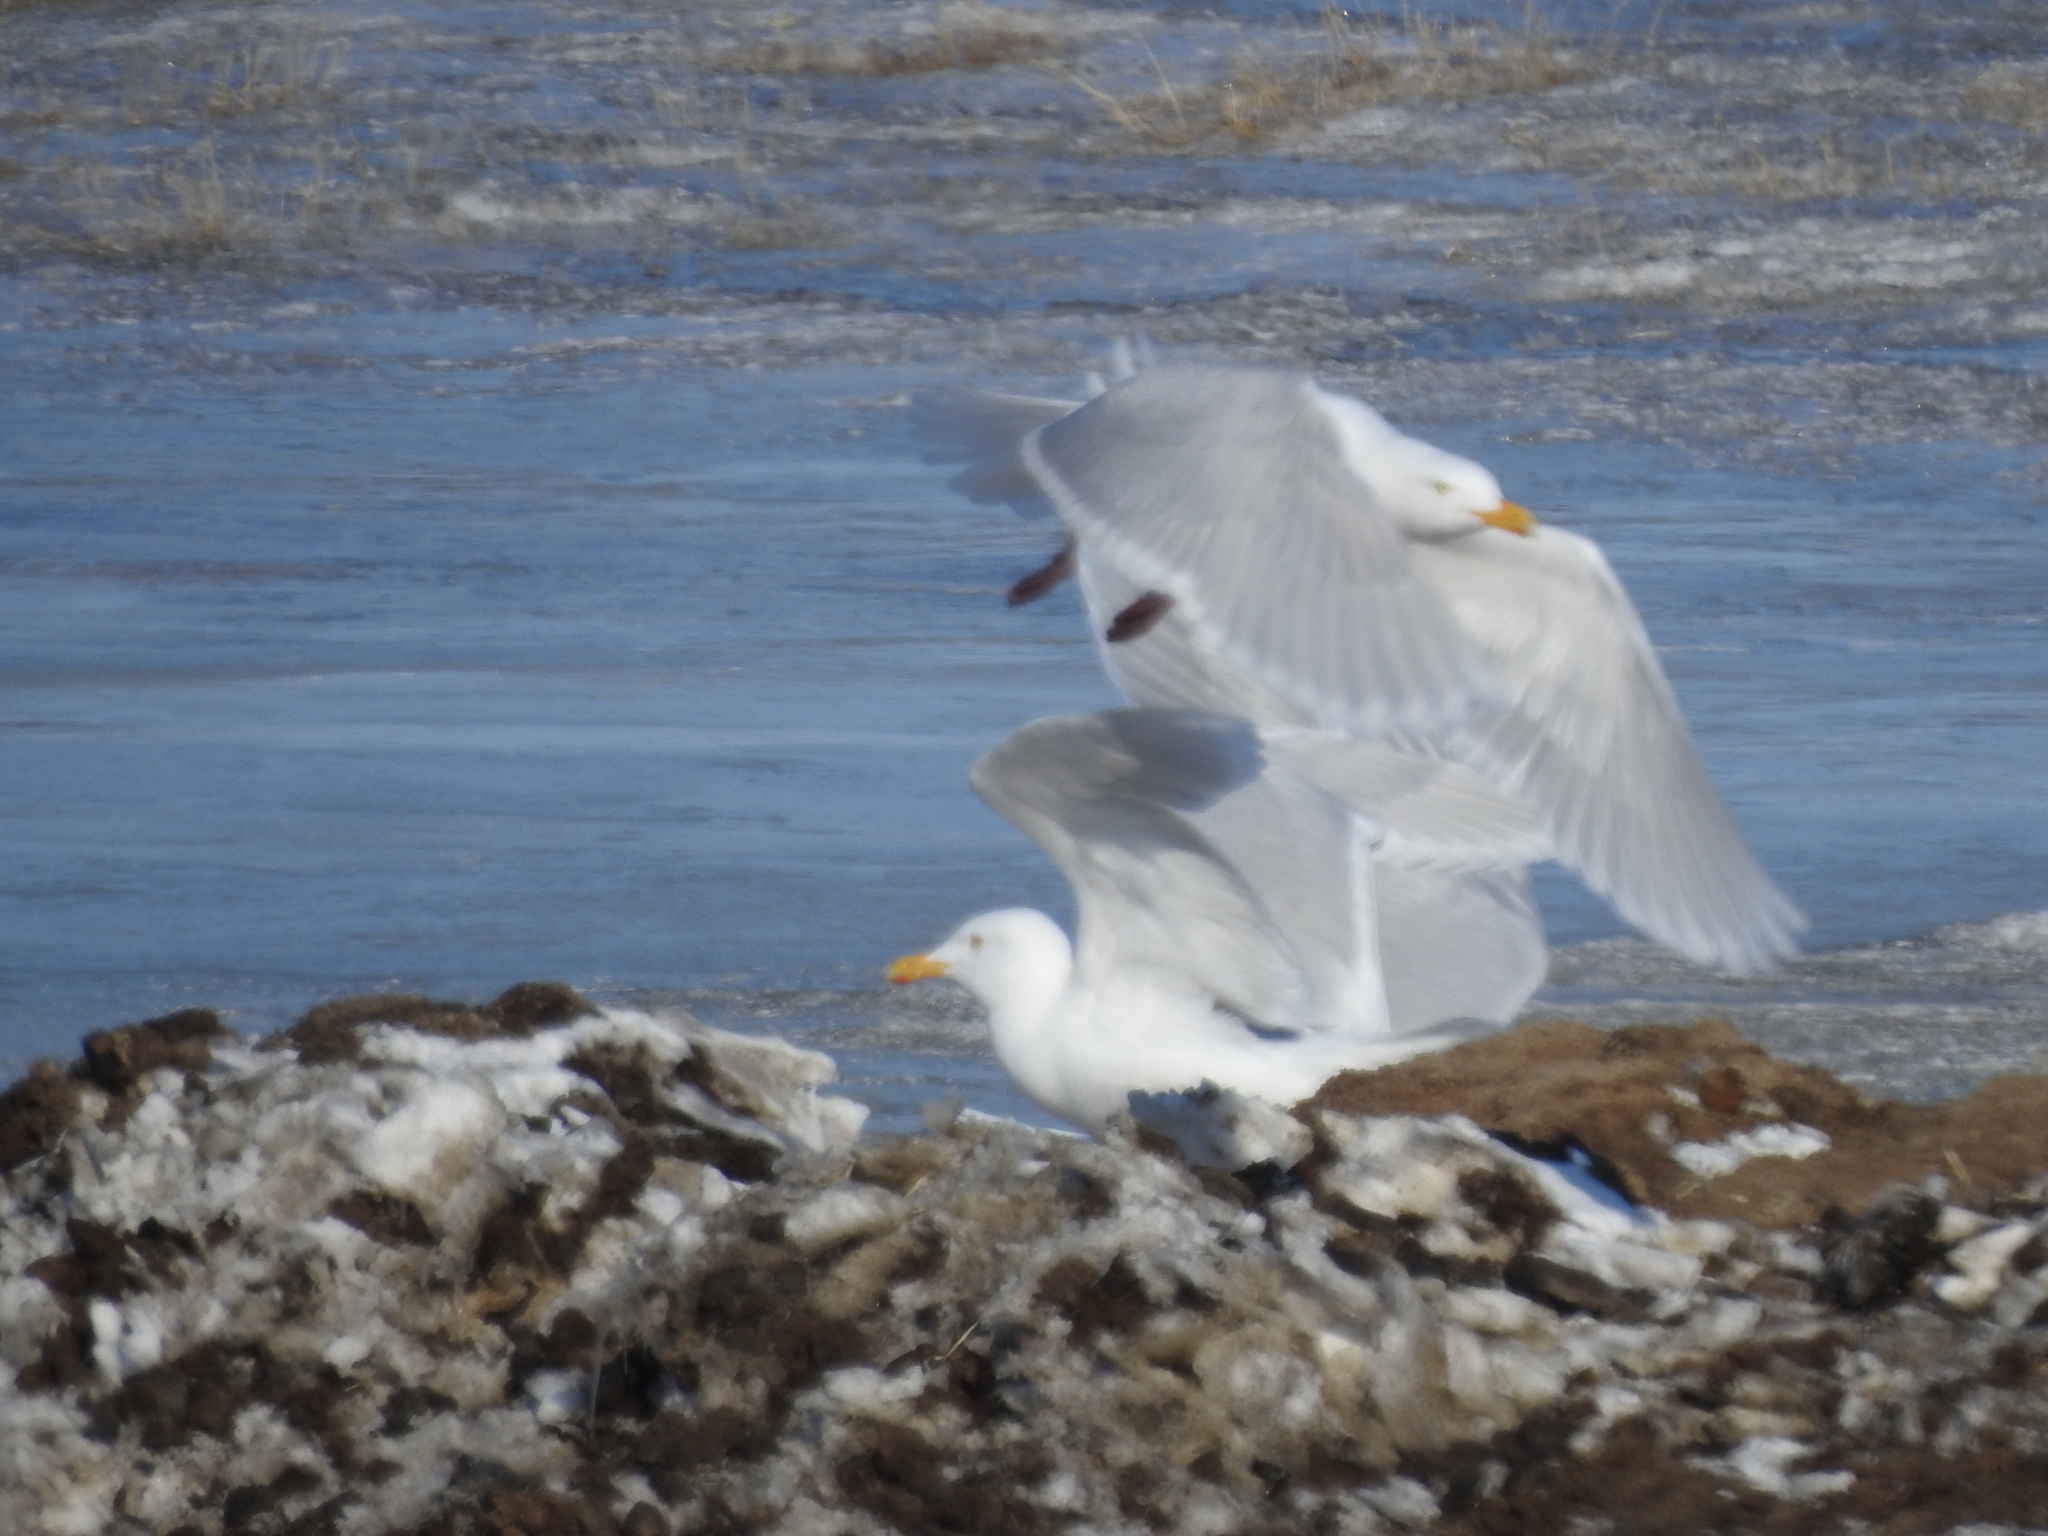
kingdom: Animalia
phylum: Chordata
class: Aves
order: Charadriiformes
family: Laridae
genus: Larus
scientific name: Larus hyperboreus
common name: Glaucous gull
